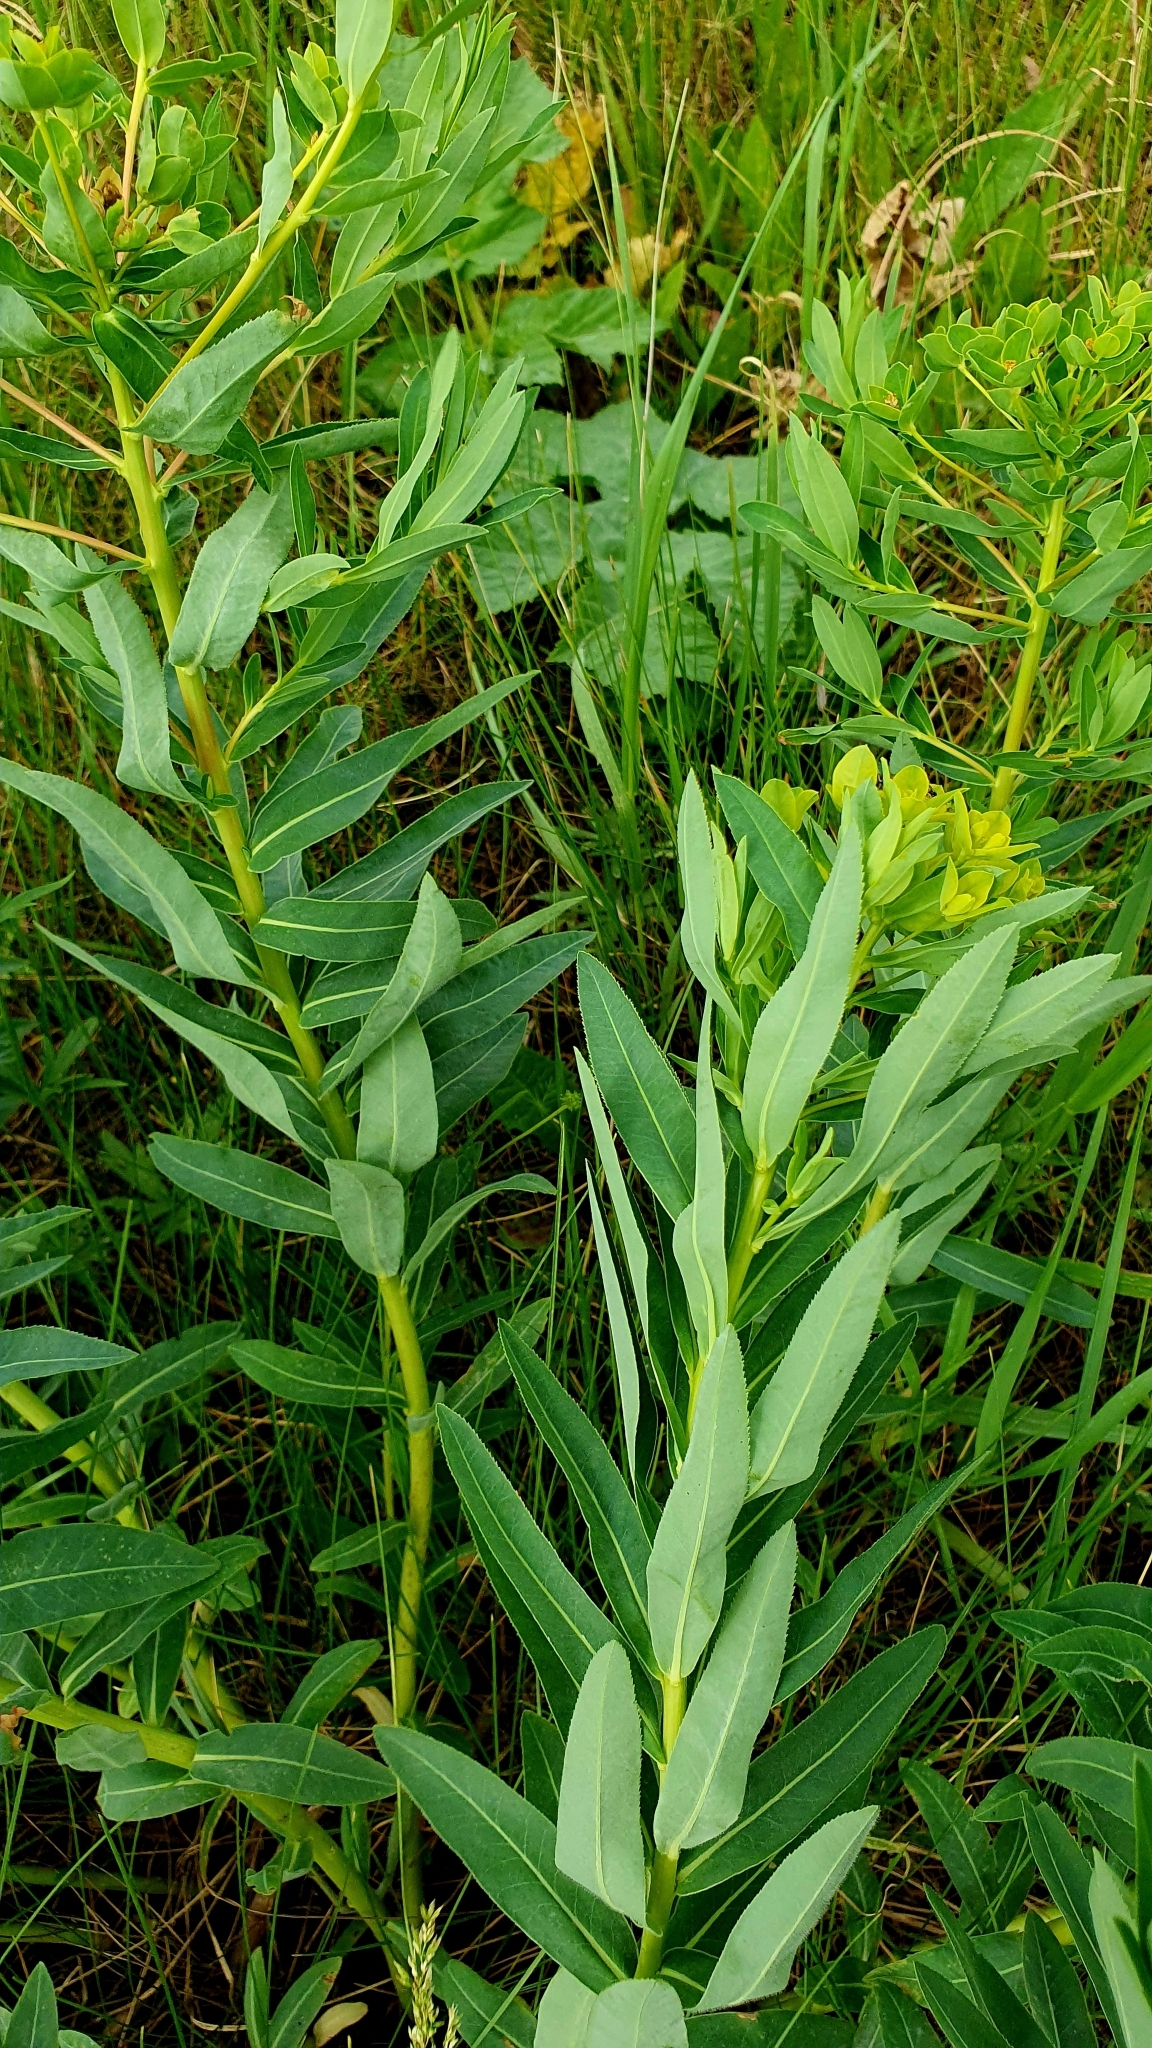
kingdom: Plantae
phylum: Tracheophyta
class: Magnoliopsida
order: Malpighiales
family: Euphorbiaceae
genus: Euphorbia
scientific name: Euphorbia palustris
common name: Marsh spurge
